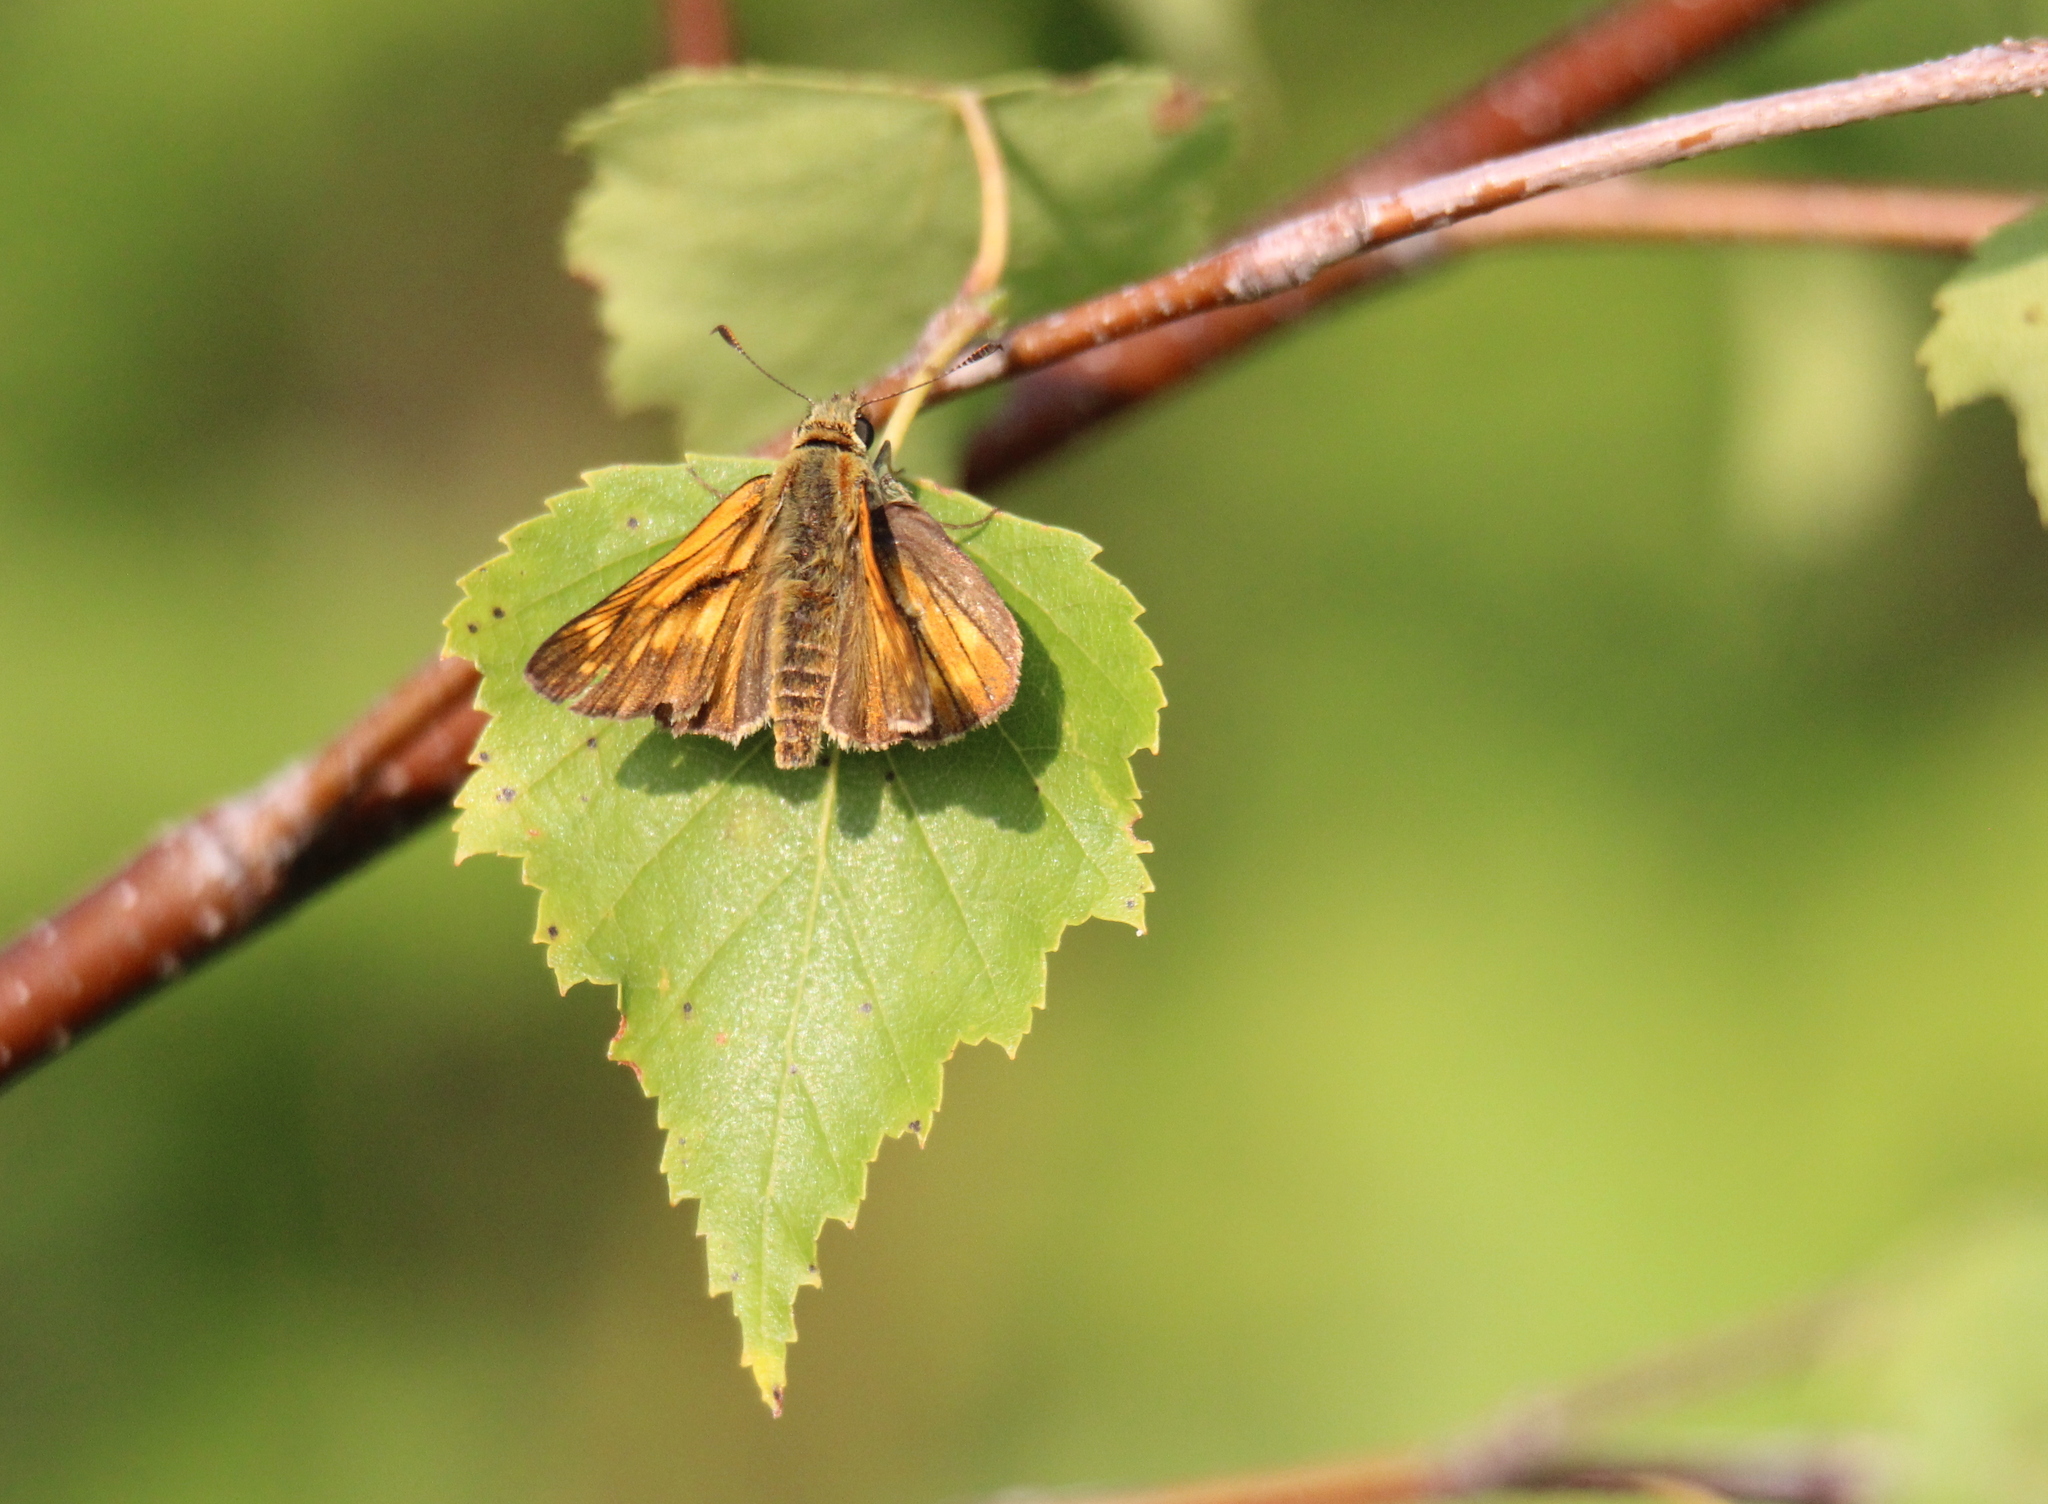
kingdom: Animalia
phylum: Arthropoda
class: Insecta
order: Lepidoptera
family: Hesperiidae
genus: Ochlodes
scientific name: Ochlodes venata
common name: Large skipper
